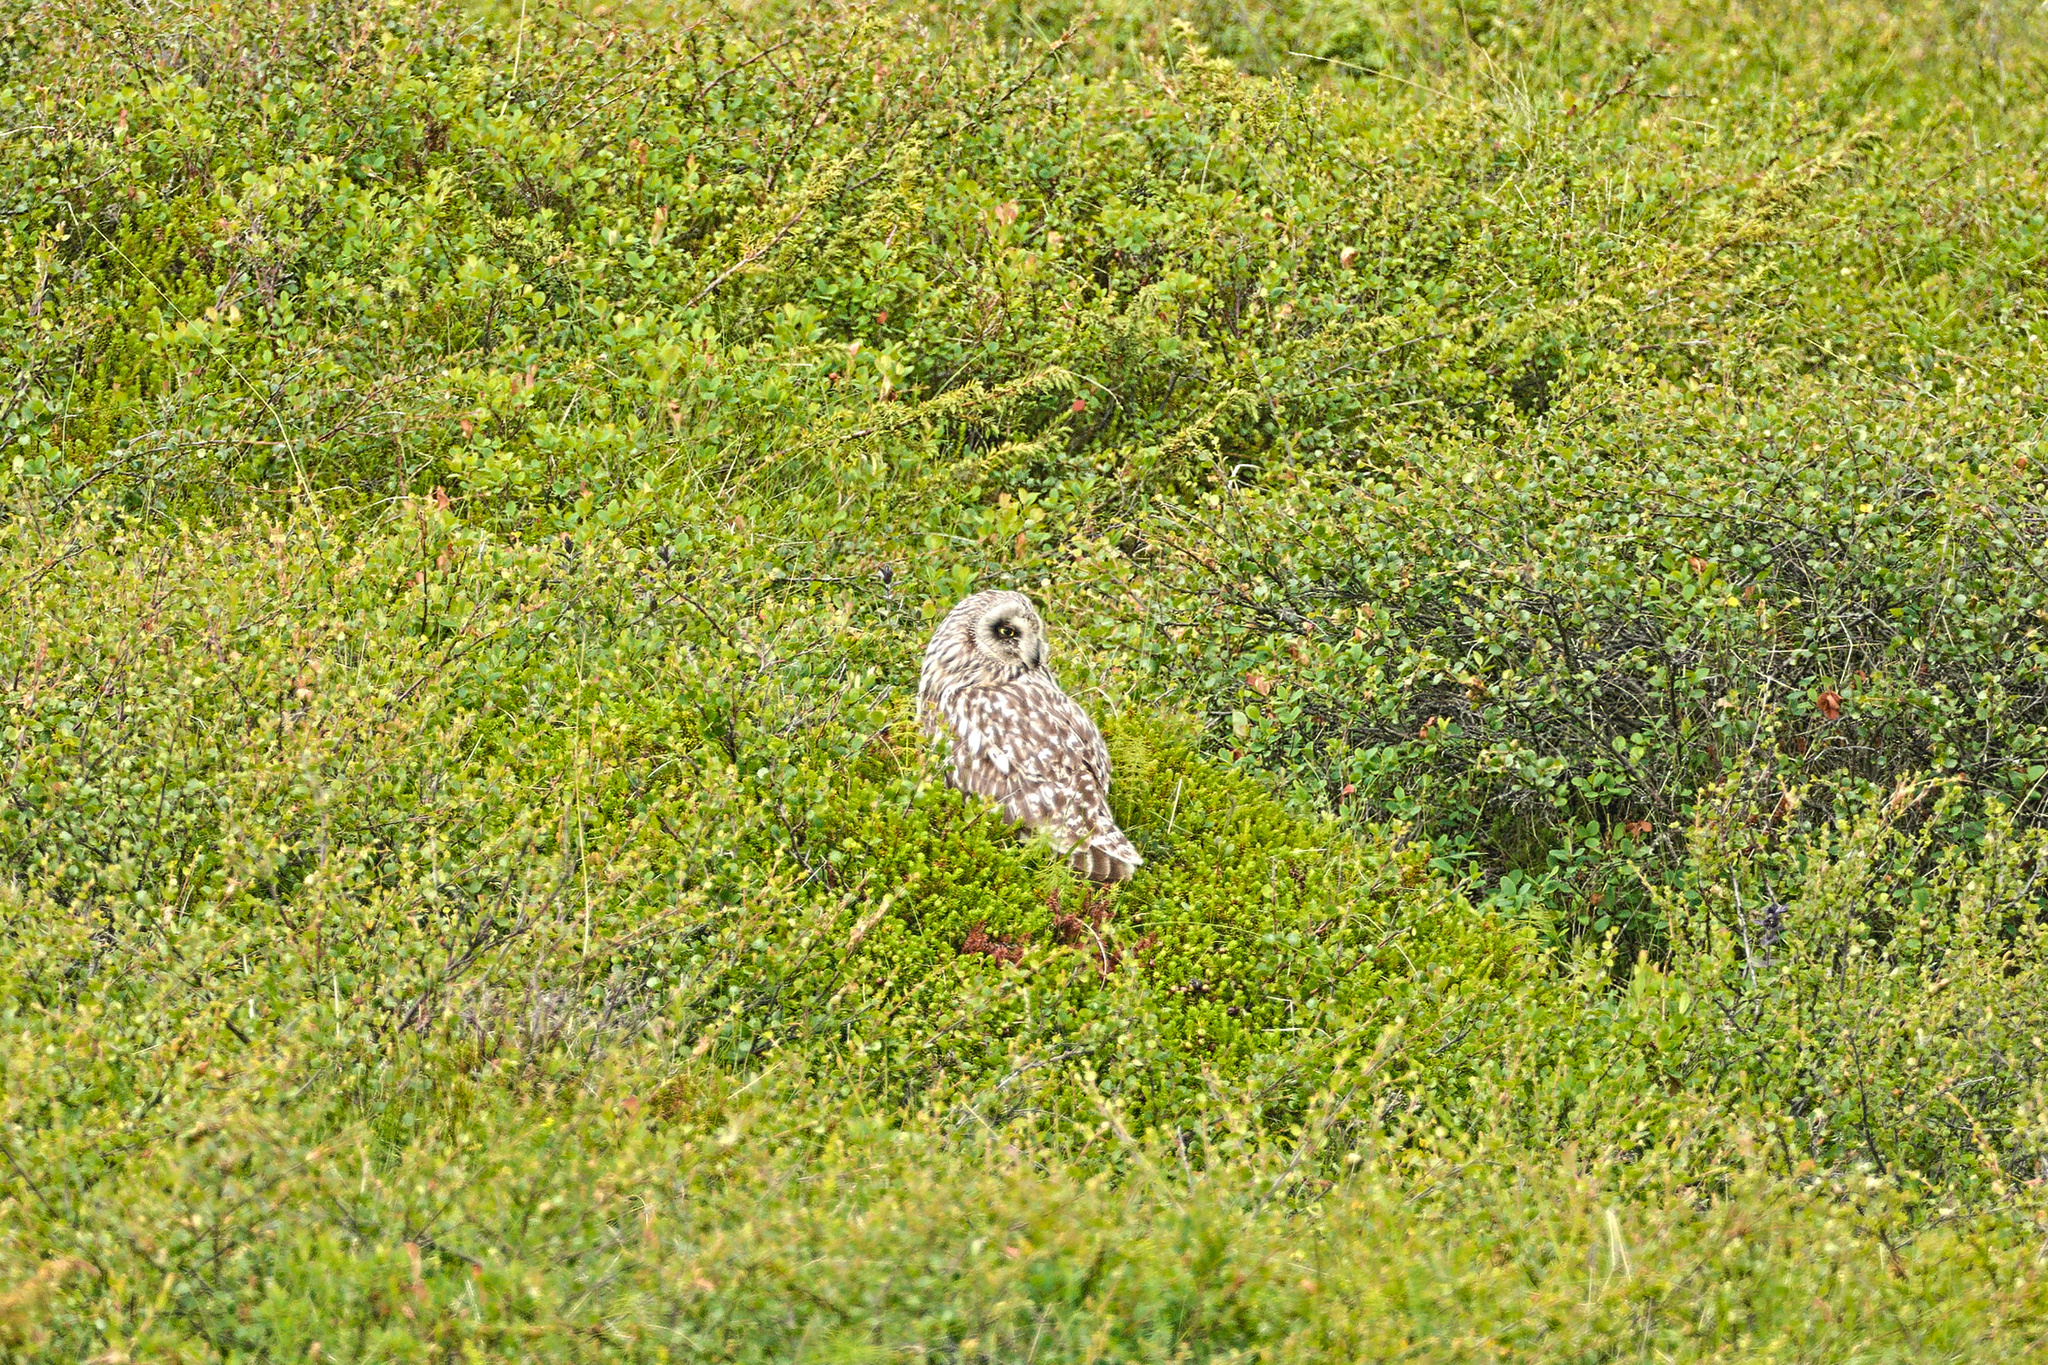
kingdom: Animalia
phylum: Chordata
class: Aves
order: Strigiformes
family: Strigidae
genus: Asio
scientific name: Asio flammeus
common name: Short-eared owl
